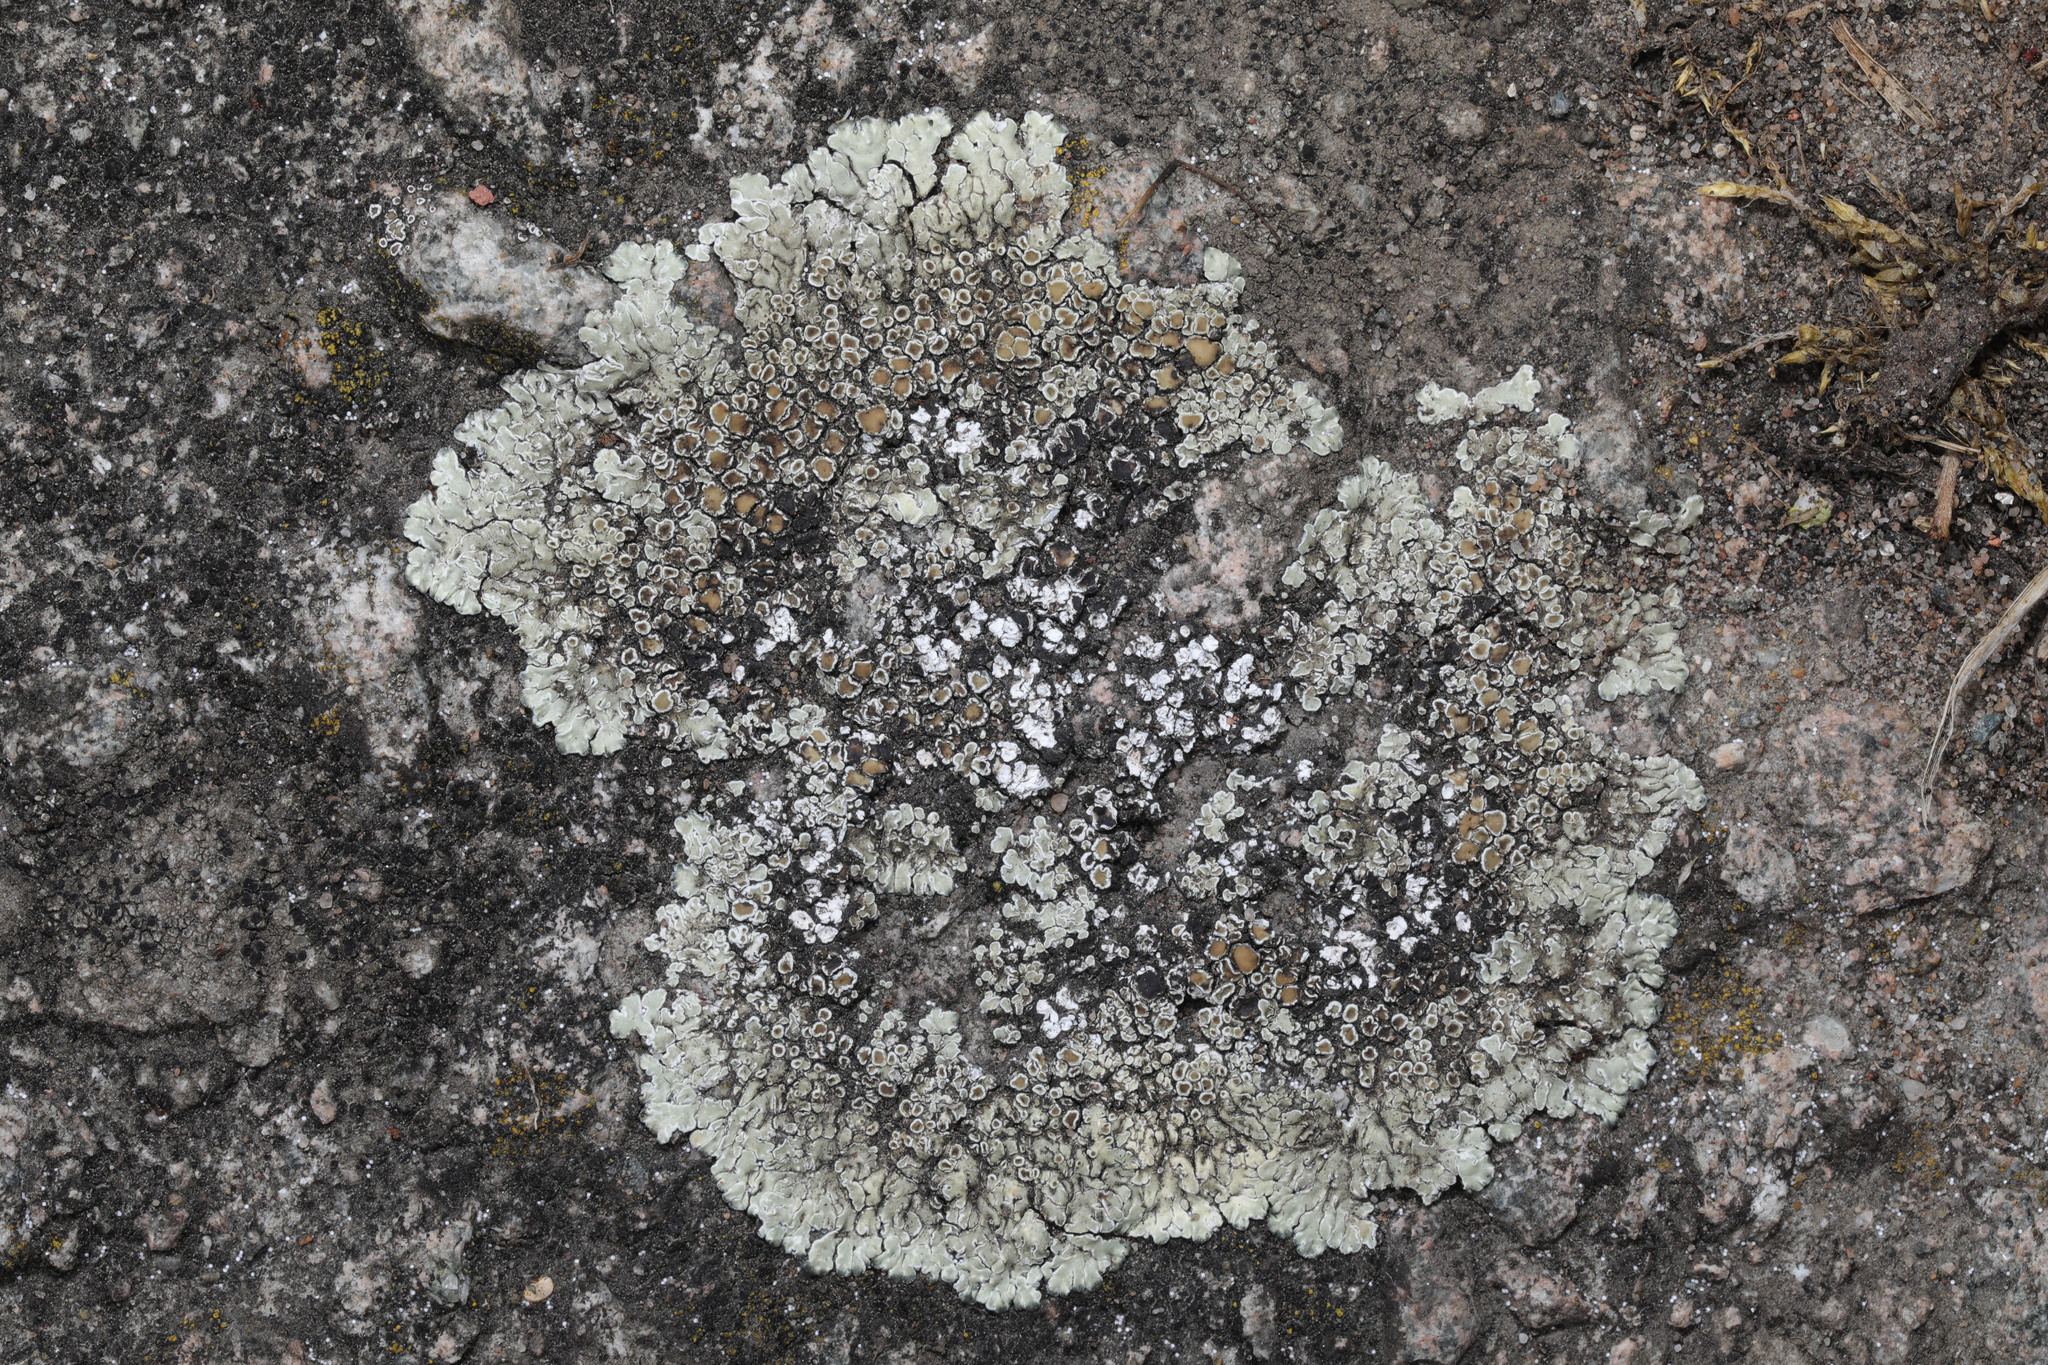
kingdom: Fungi
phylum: Ascomycota
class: Lecanoromycetes
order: Lecanorales
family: Lecanoraceae
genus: Protoparmeliopsis
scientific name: Protoparmeliopsis muralis
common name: Stonewall rim lichen
